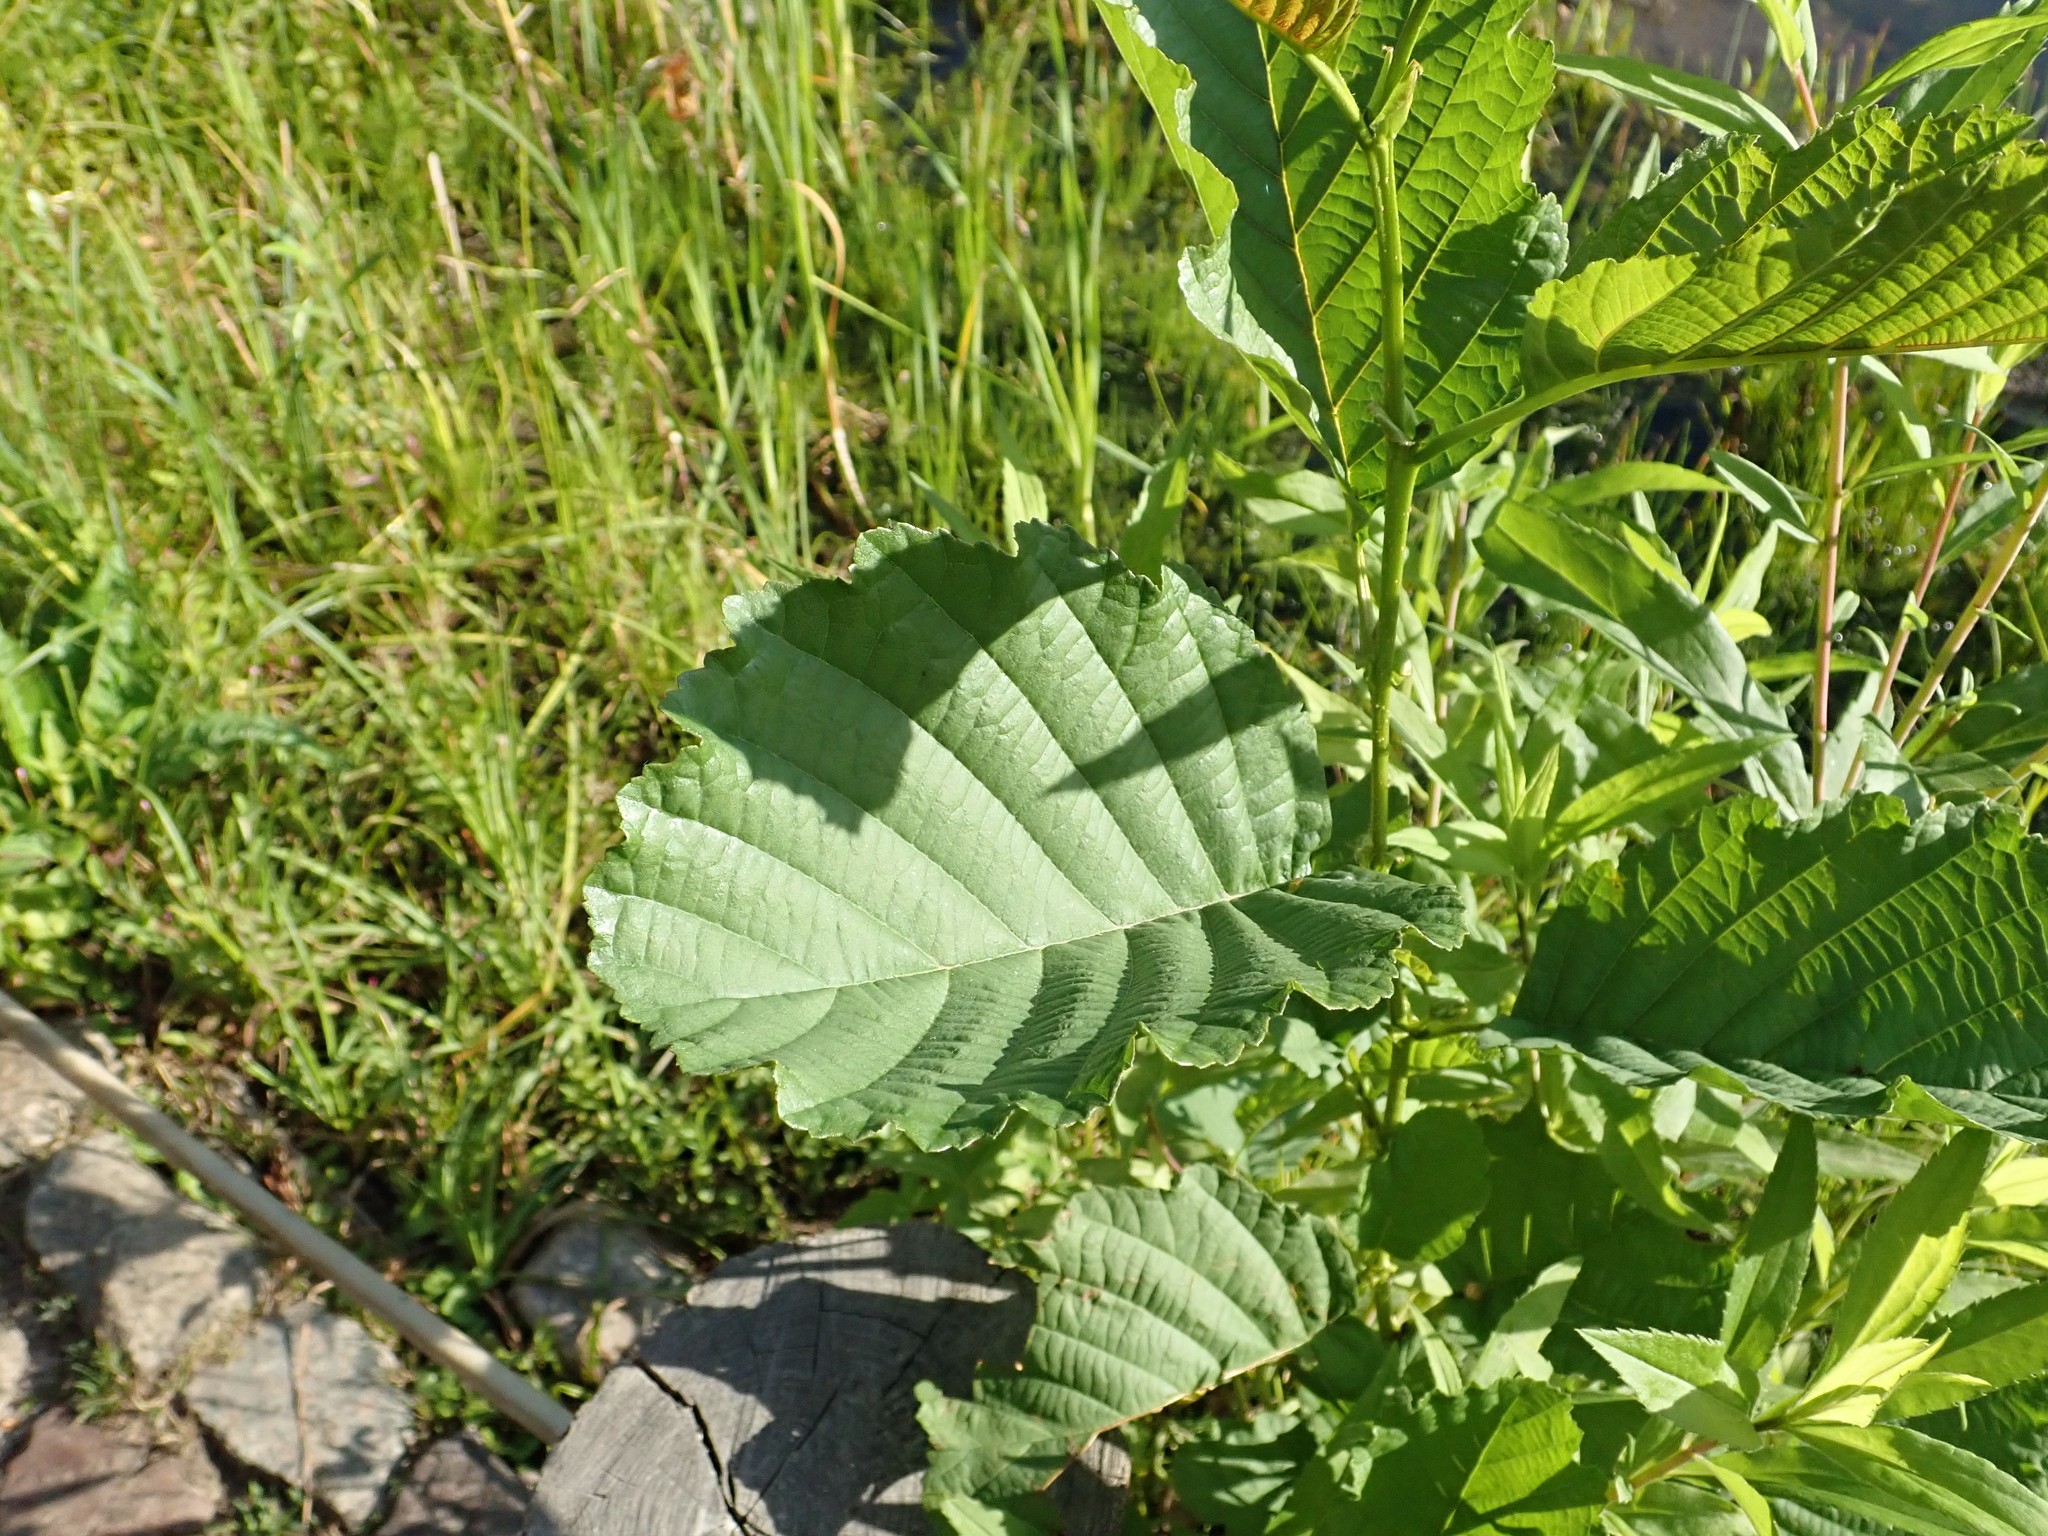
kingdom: Plantae
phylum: Tracheophyta
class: Magnoliopsida
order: Fagales
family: Betulaceae
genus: Alnus
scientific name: Alnus glutinosa
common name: Black alder
